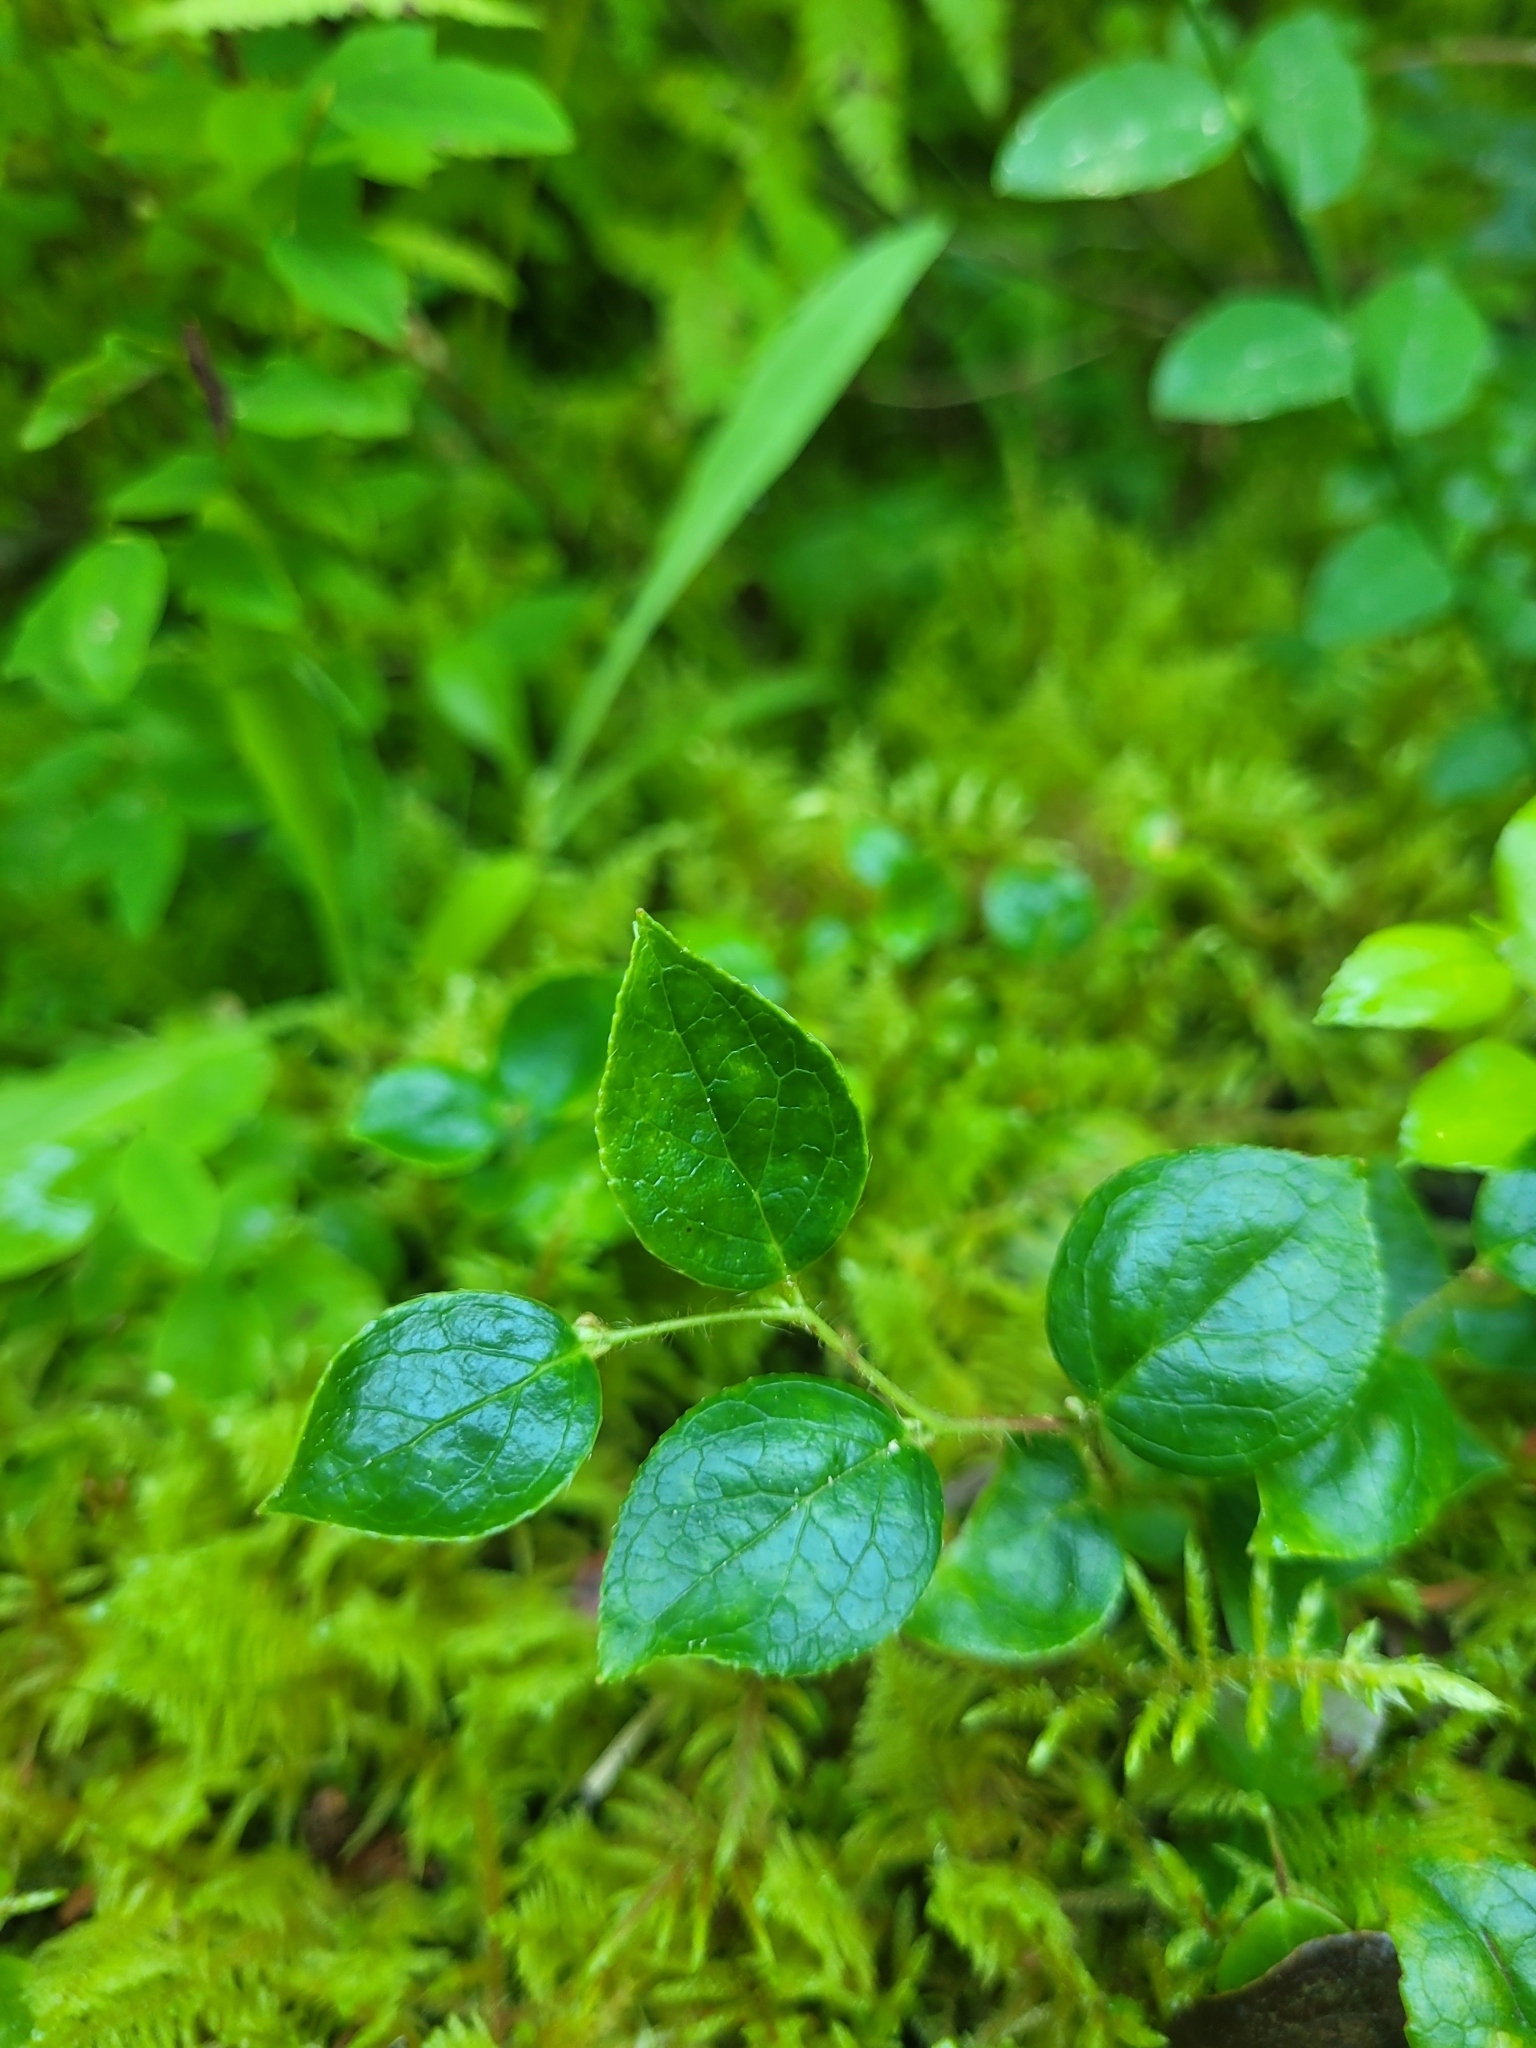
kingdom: Plantae
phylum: Tracheophyta
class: Magnoliopsida
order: Ericales
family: Ericaceae
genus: Gaultheria
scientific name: Gaultheria ovatifolia
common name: Oregon wintergreen
